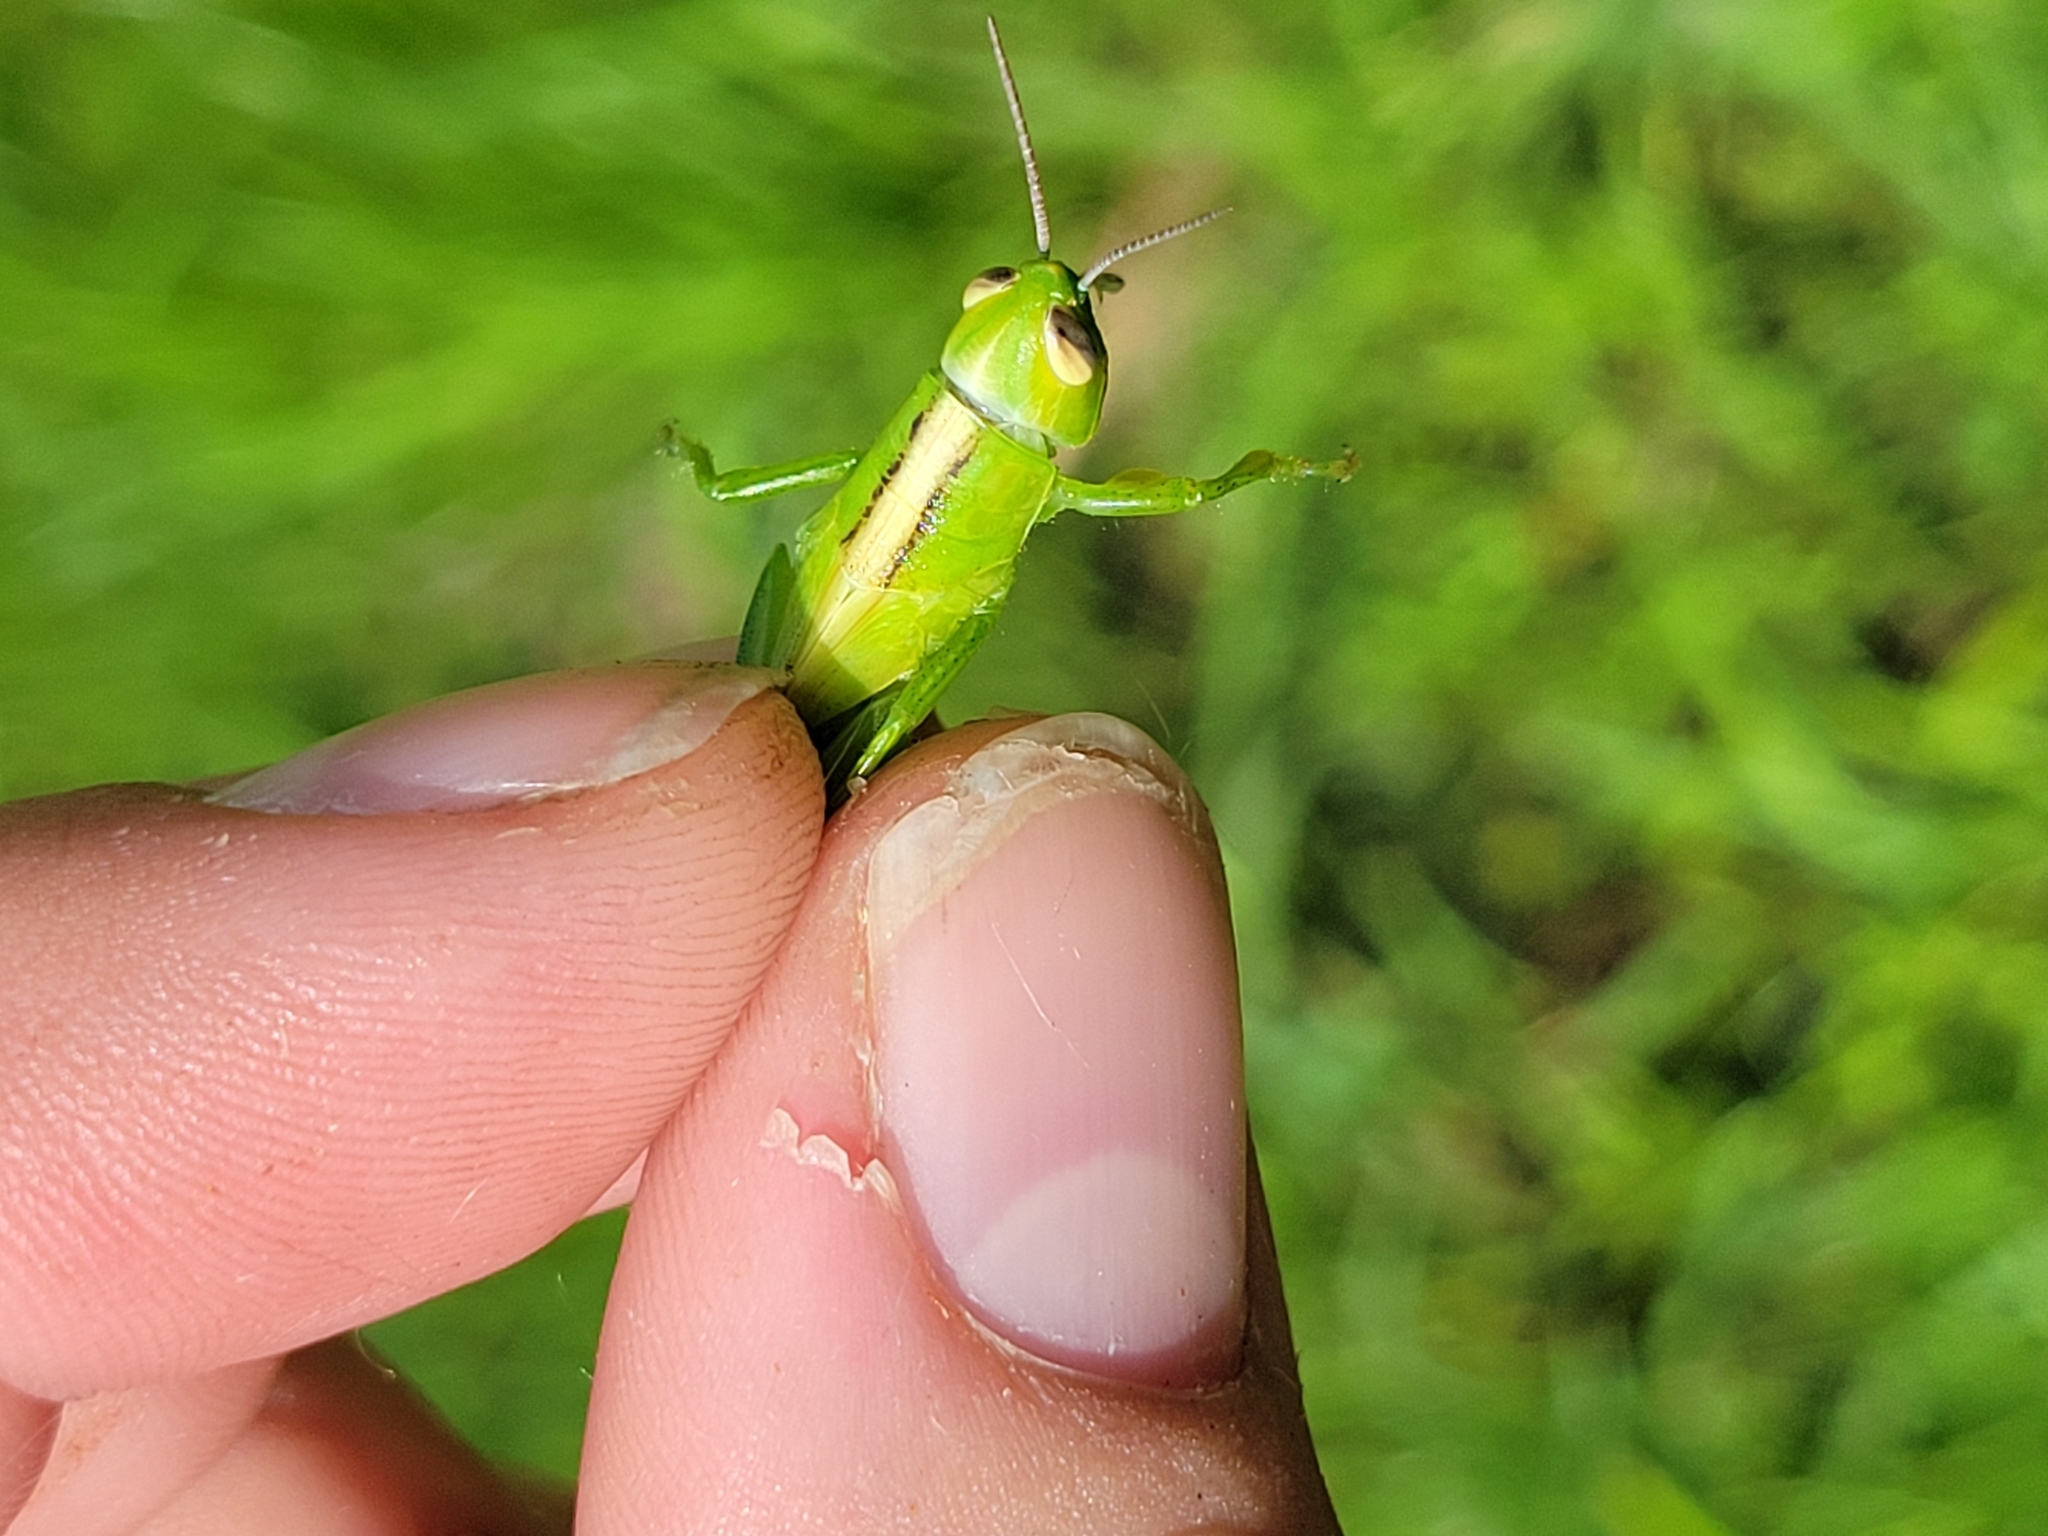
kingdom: Animalia
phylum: Arthropoda
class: Insecta
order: Orthoptera
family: Acrididae
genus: Oxya
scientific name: Oxya velox
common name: Rice grasshopper
